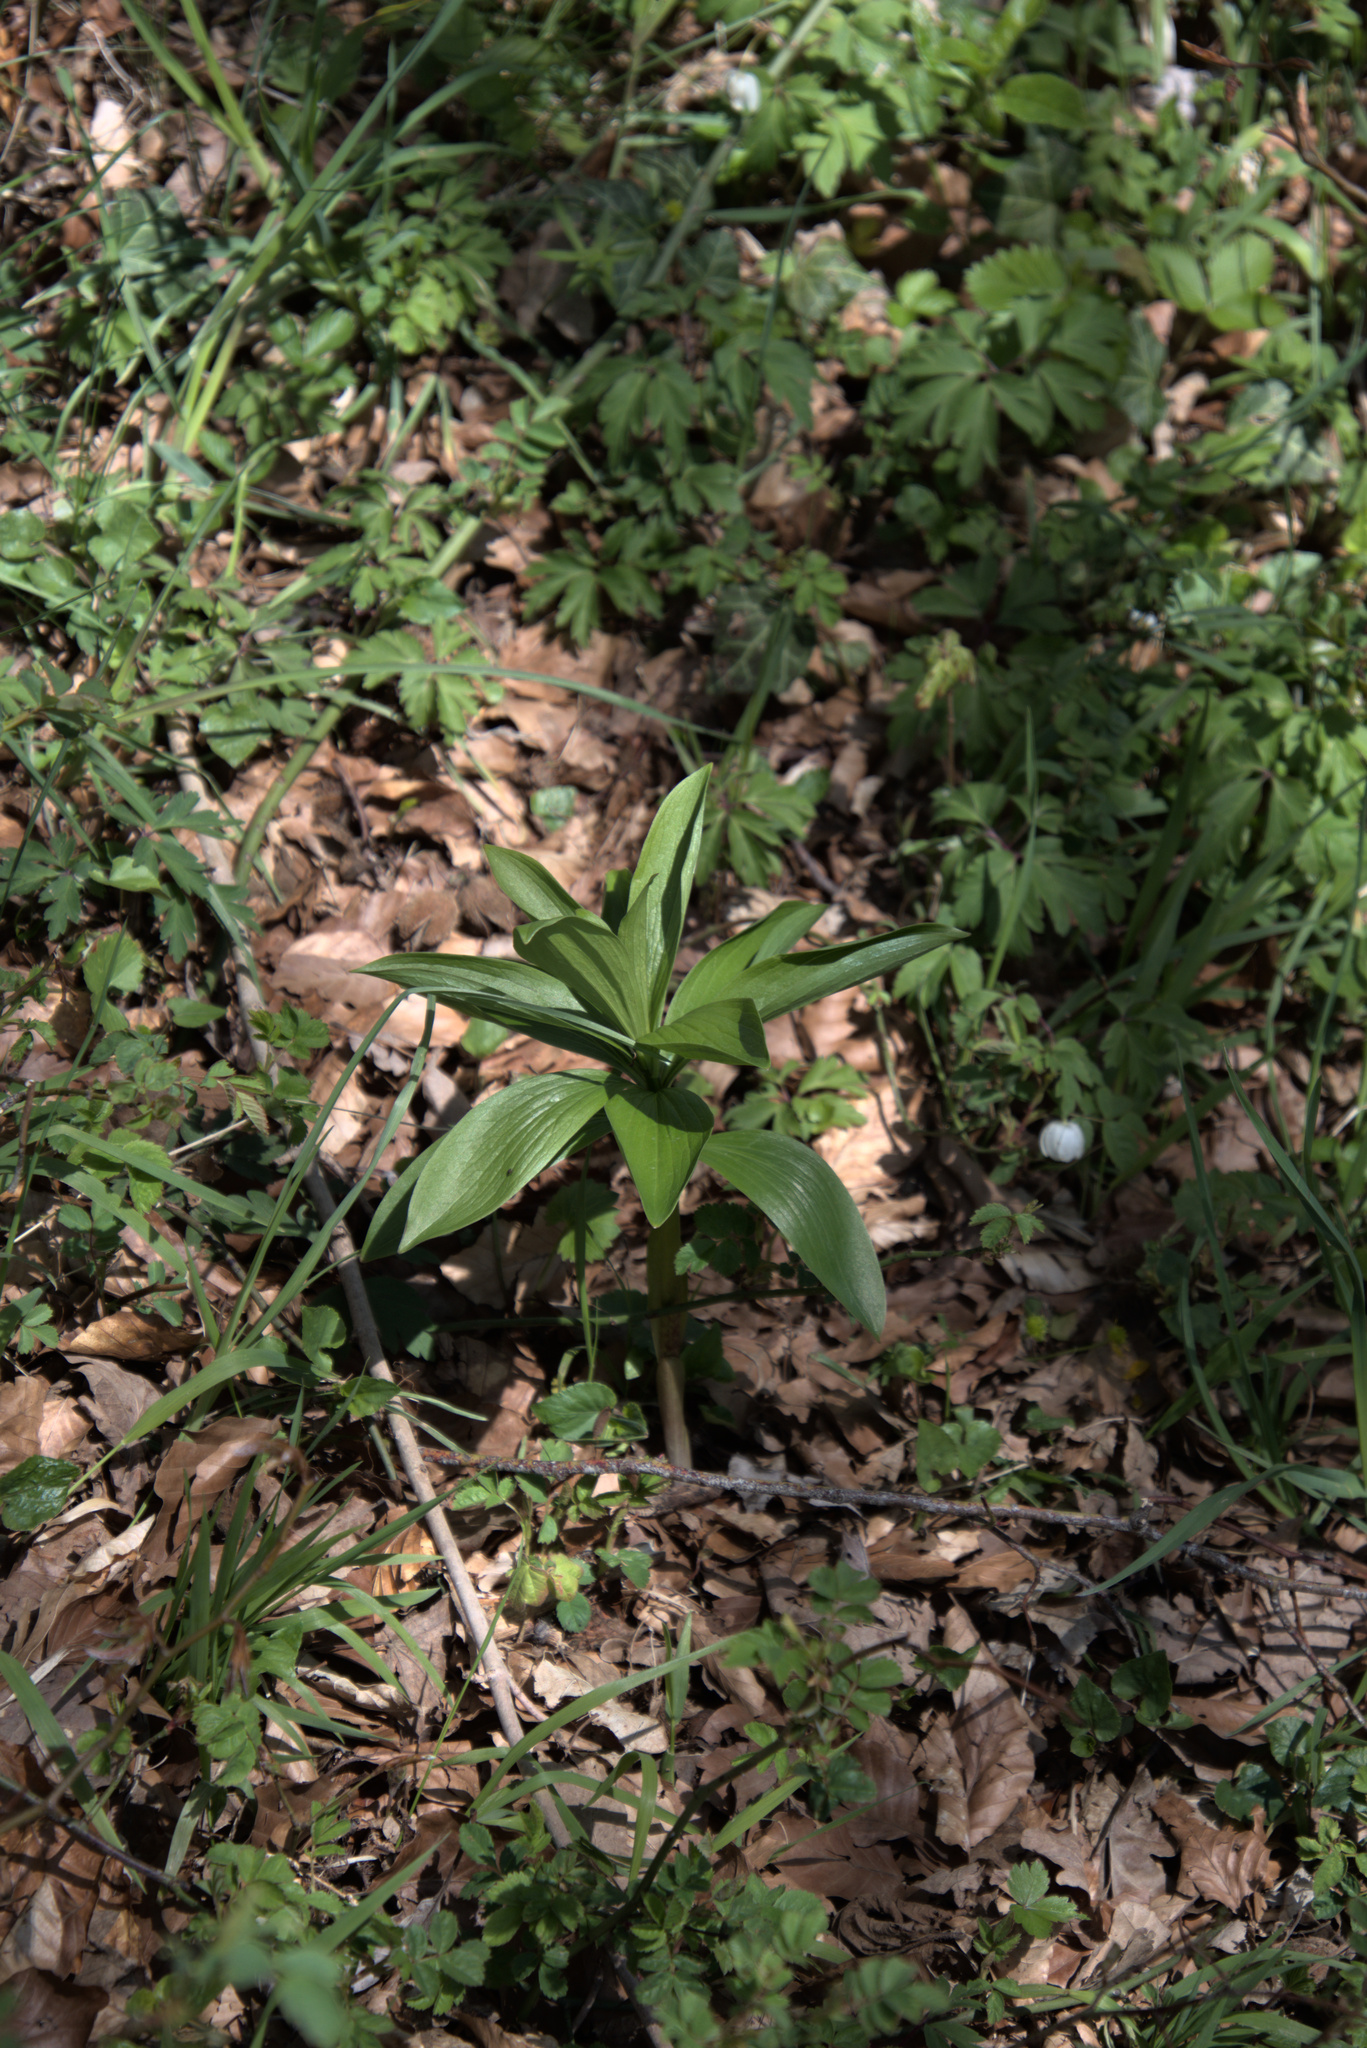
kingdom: Plantae
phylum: Tracheophyta
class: Liliopsida
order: Liliales
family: Liliaceae
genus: Lilium
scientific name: Lilium martagon
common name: Martagon lily
